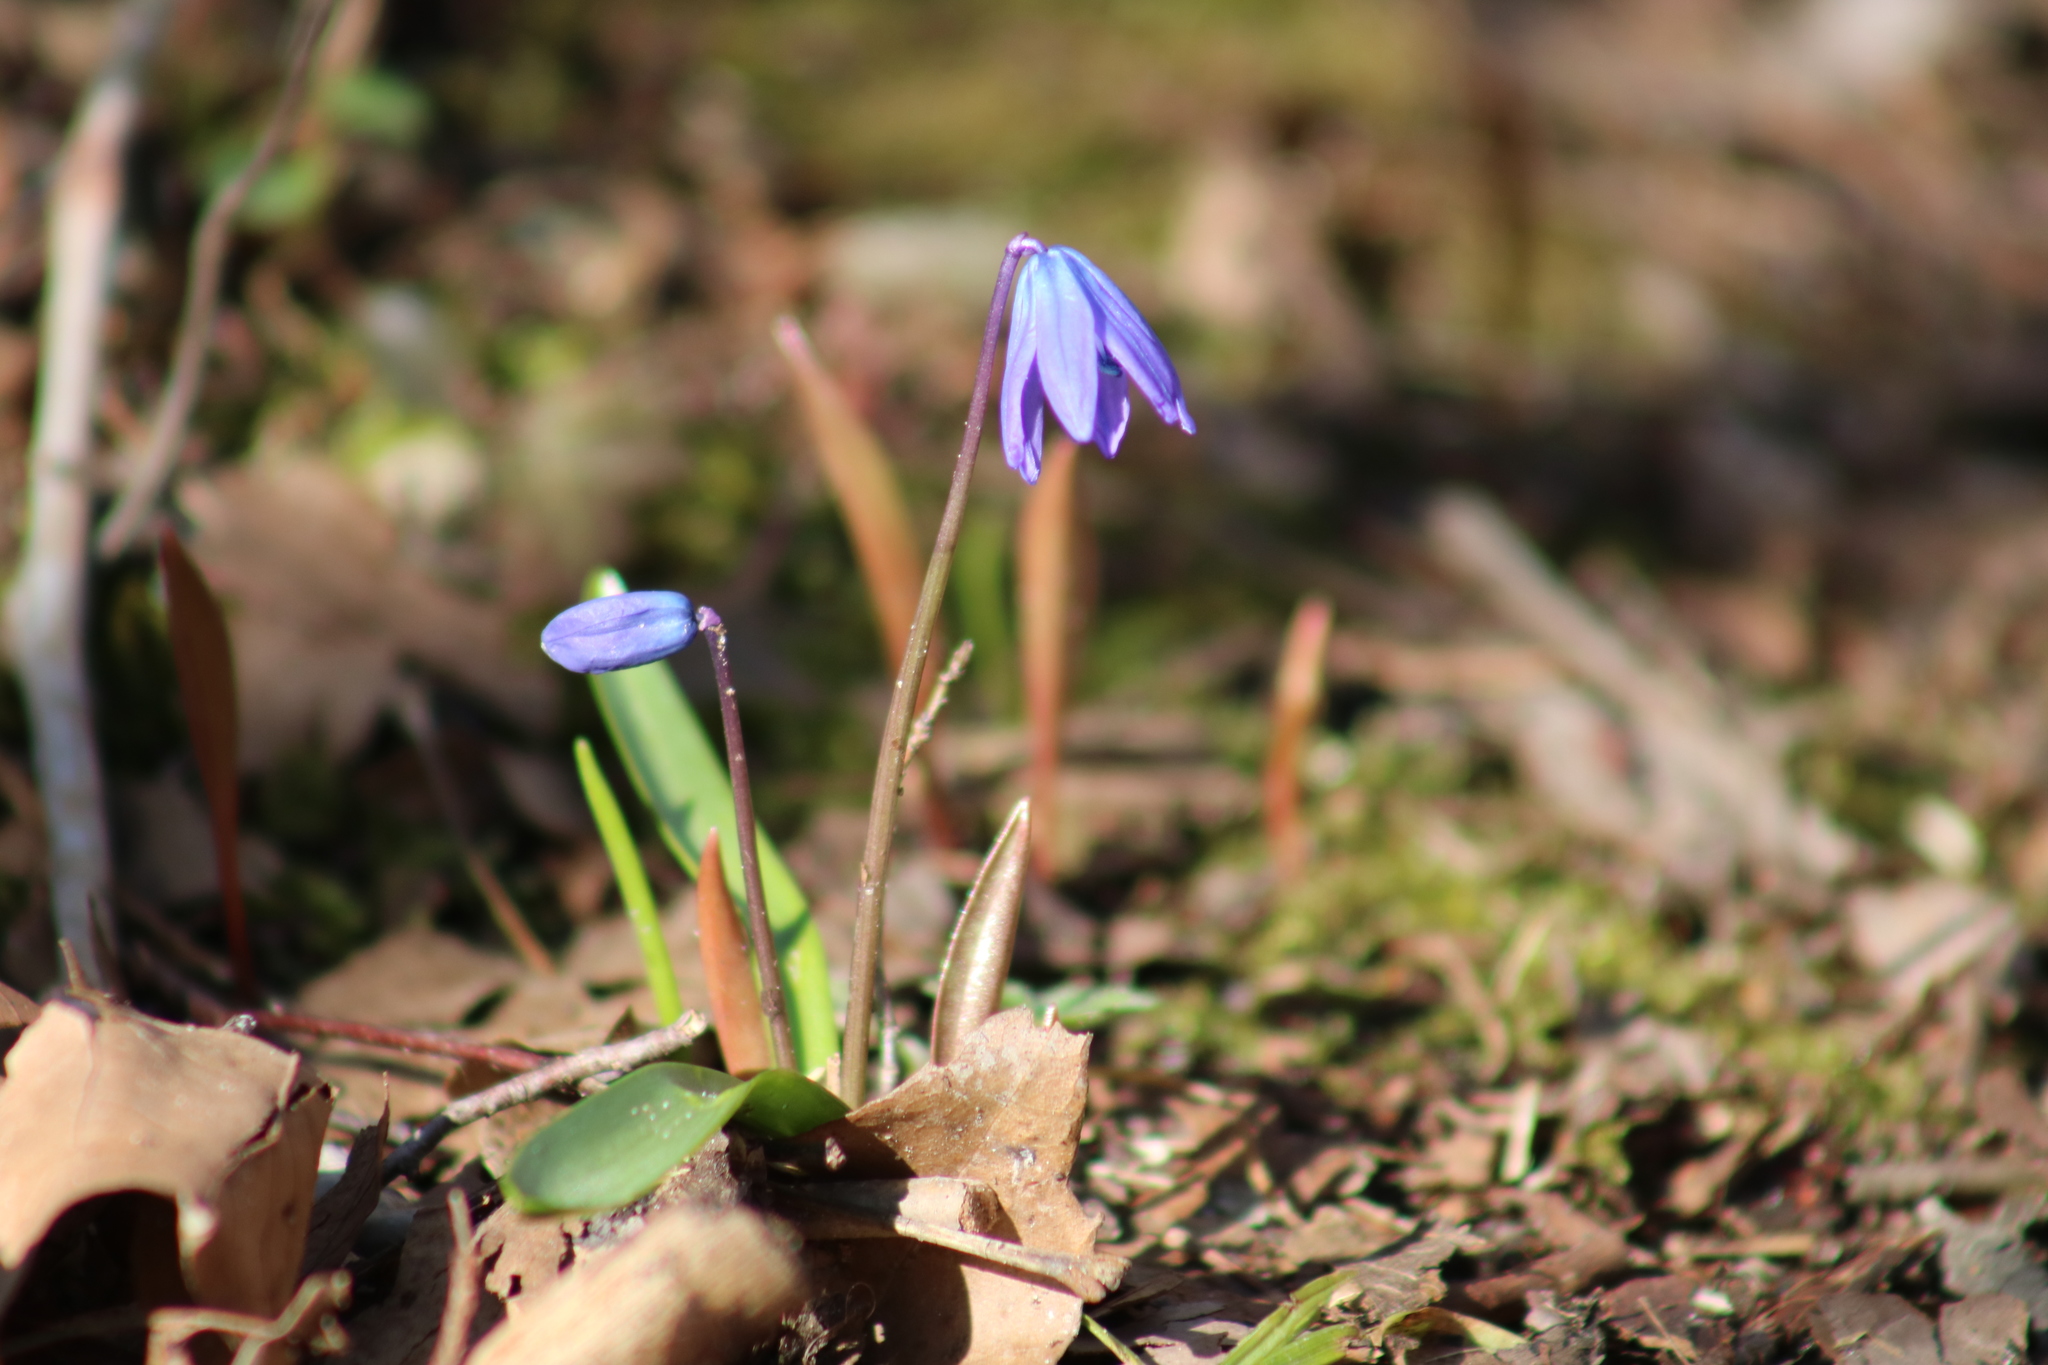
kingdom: Plantae
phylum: Tracheophyta
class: Liliopsida
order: Asparagales
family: Asparagaceae
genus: Scilla
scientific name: Scilla siberica
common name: Siberian squill
